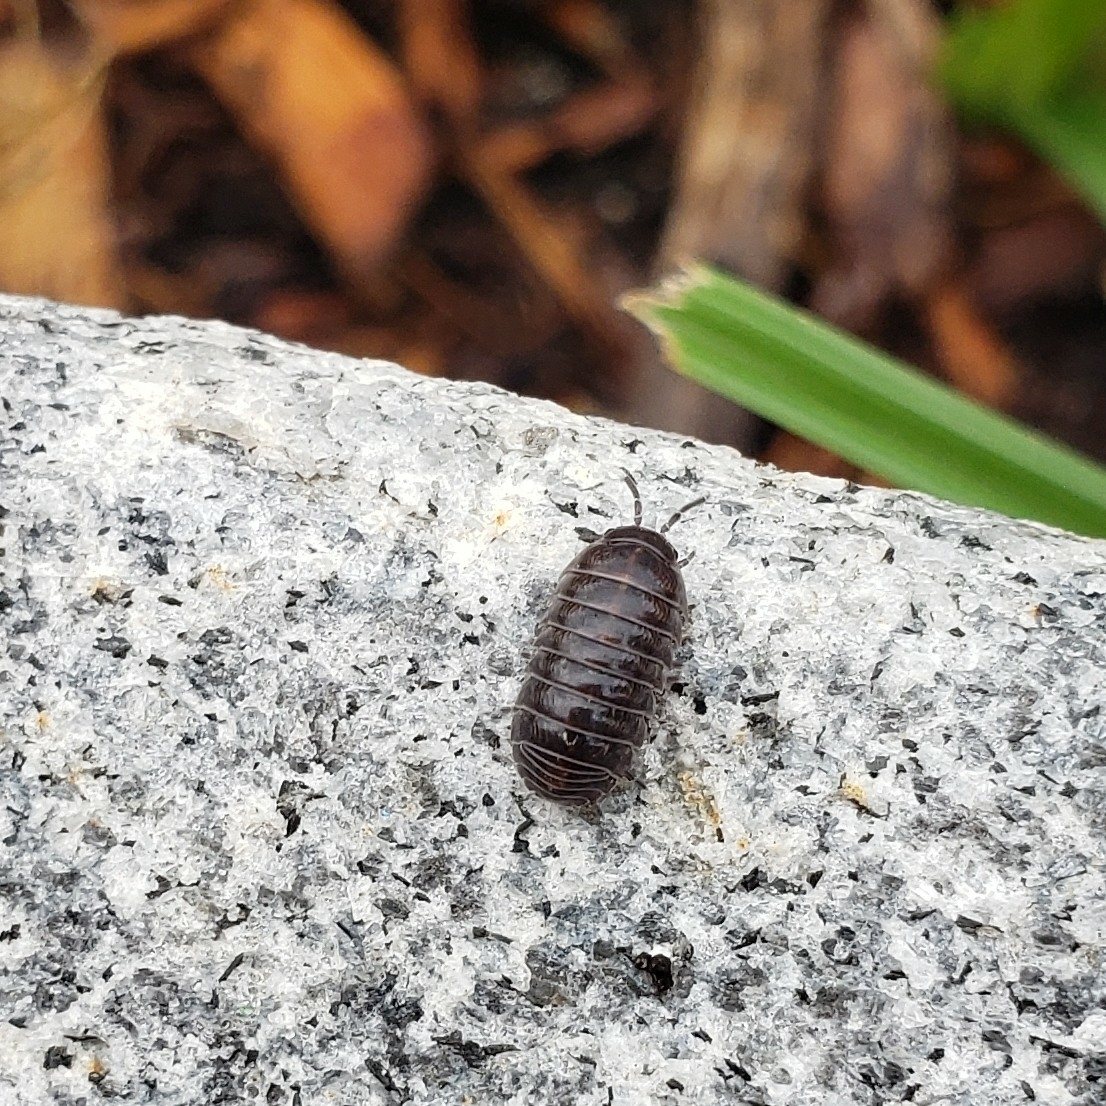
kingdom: Animalia
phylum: Arthropoda
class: Malacostraca
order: Isopoda
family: Armadillidiidae
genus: Armadillidium
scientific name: Armadillidium vulgare
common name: Common pill woodlouse
